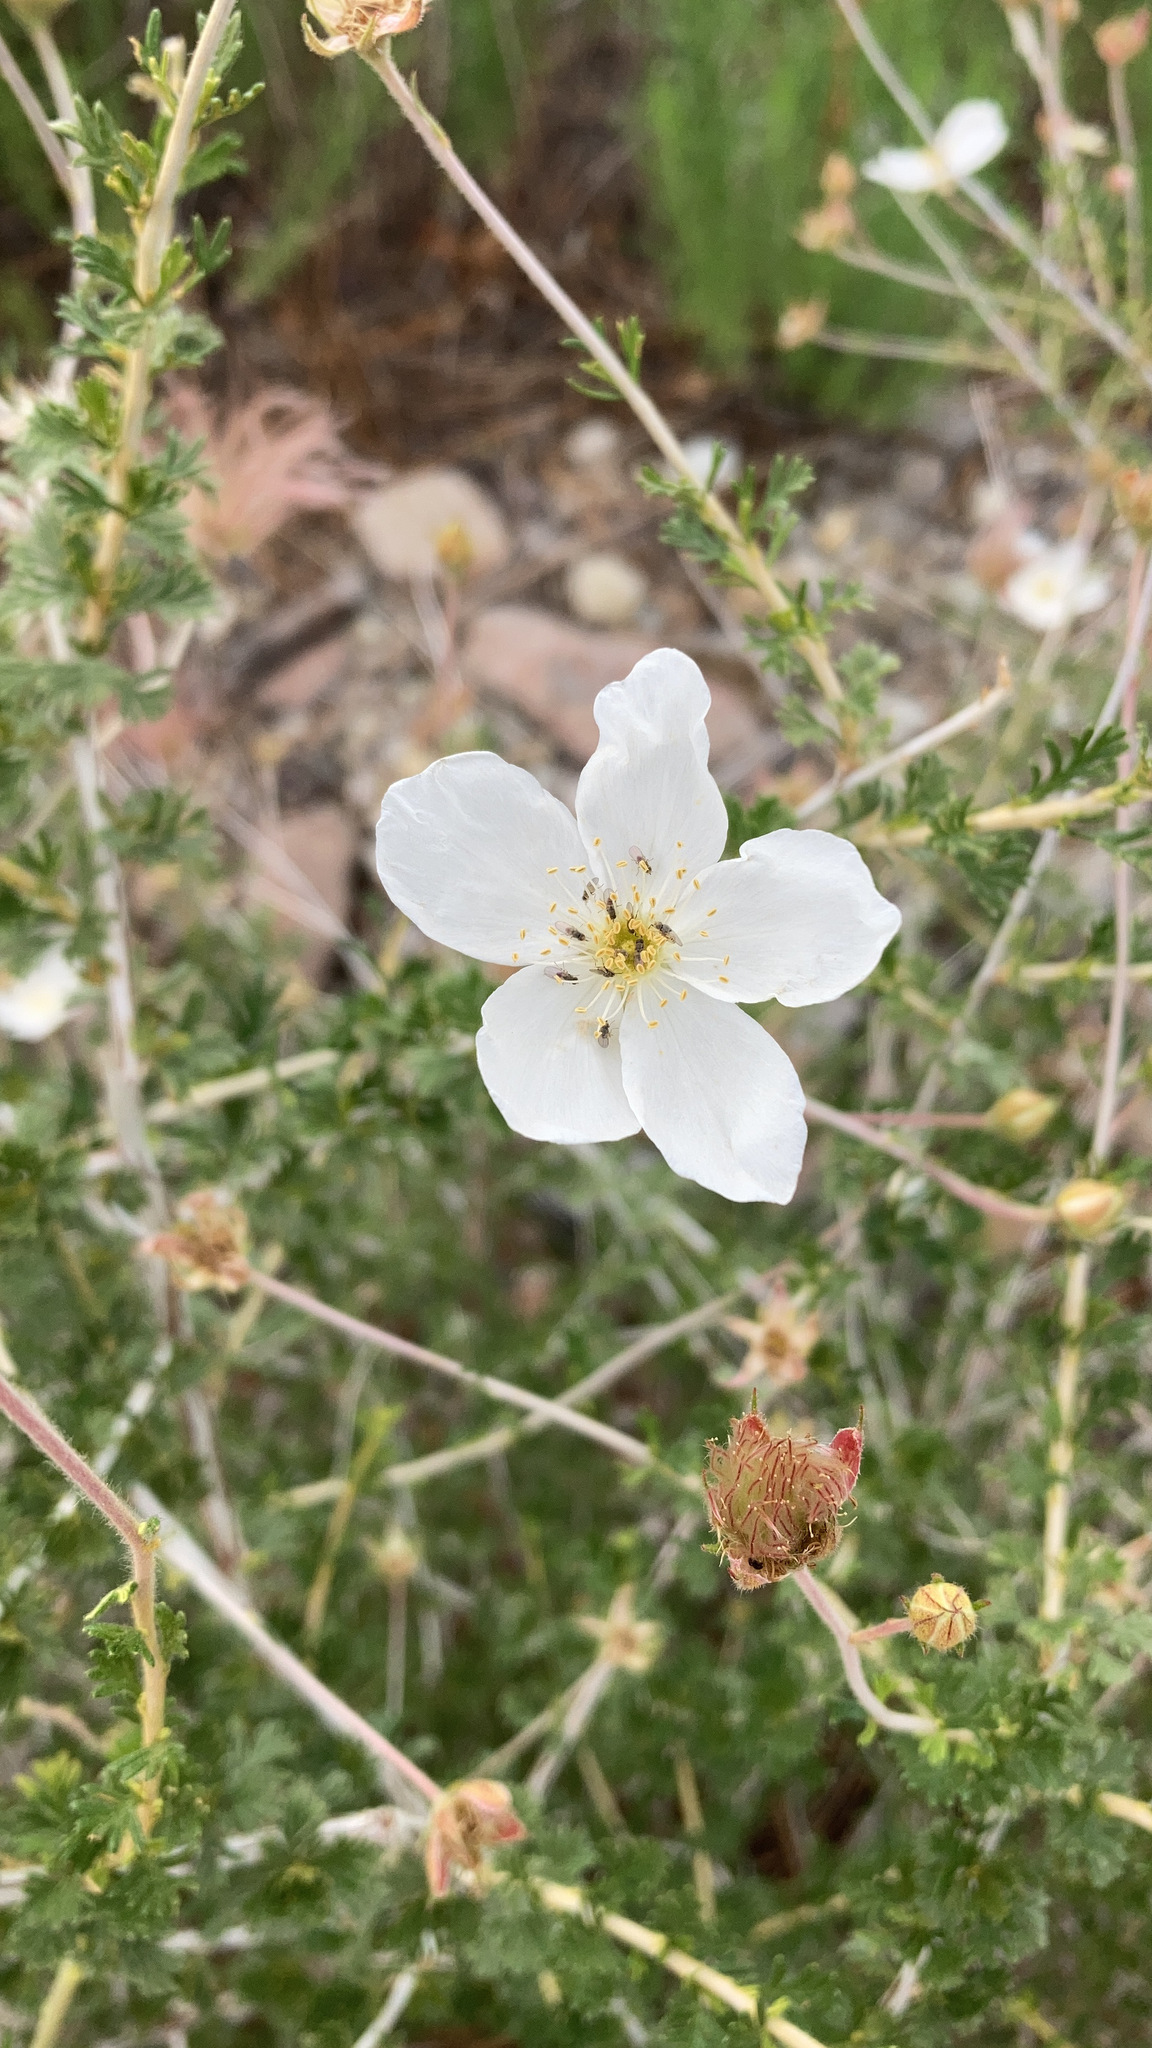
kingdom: Plantae
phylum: Tracheophyta
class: Magnoliopsida
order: Rosales
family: Rosaceae
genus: Fallugia
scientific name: Fallugia paradoxa
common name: Apache-plume
